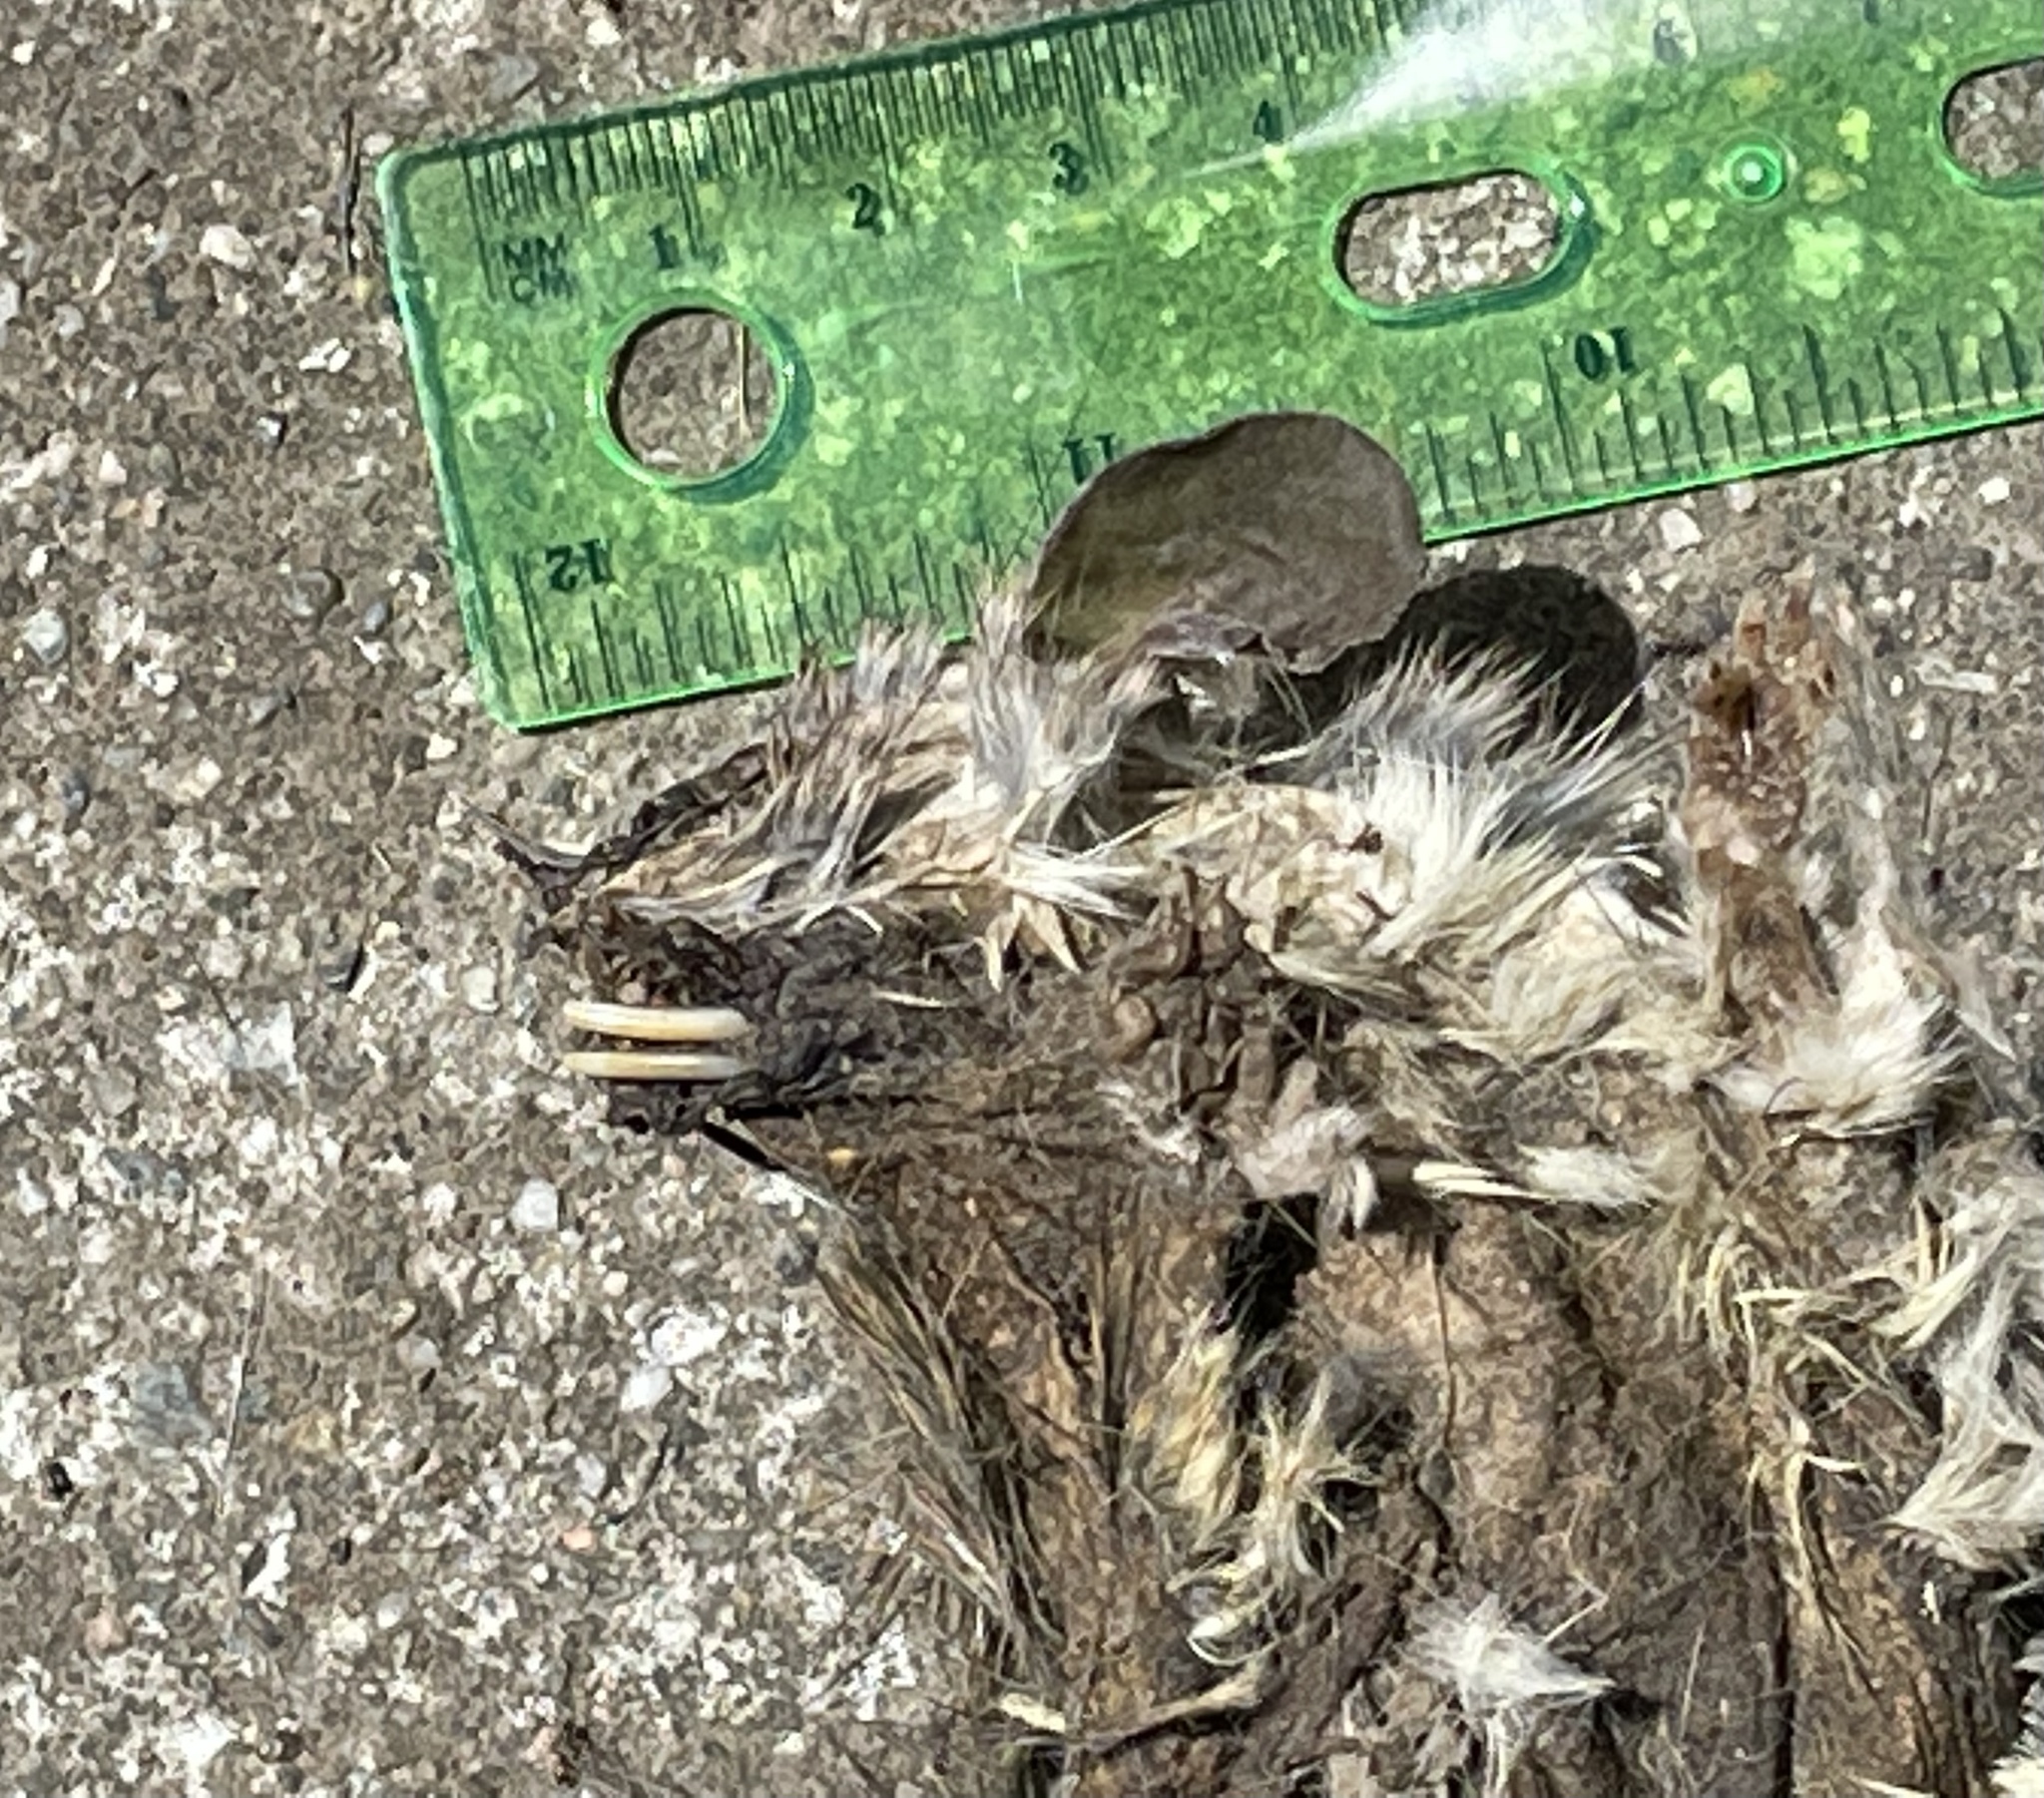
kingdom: Animalia
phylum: Chordata
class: Mammalia
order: Rodentia
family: Muridae
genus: Rattus
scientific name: Rattus rattus
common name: Black rat
